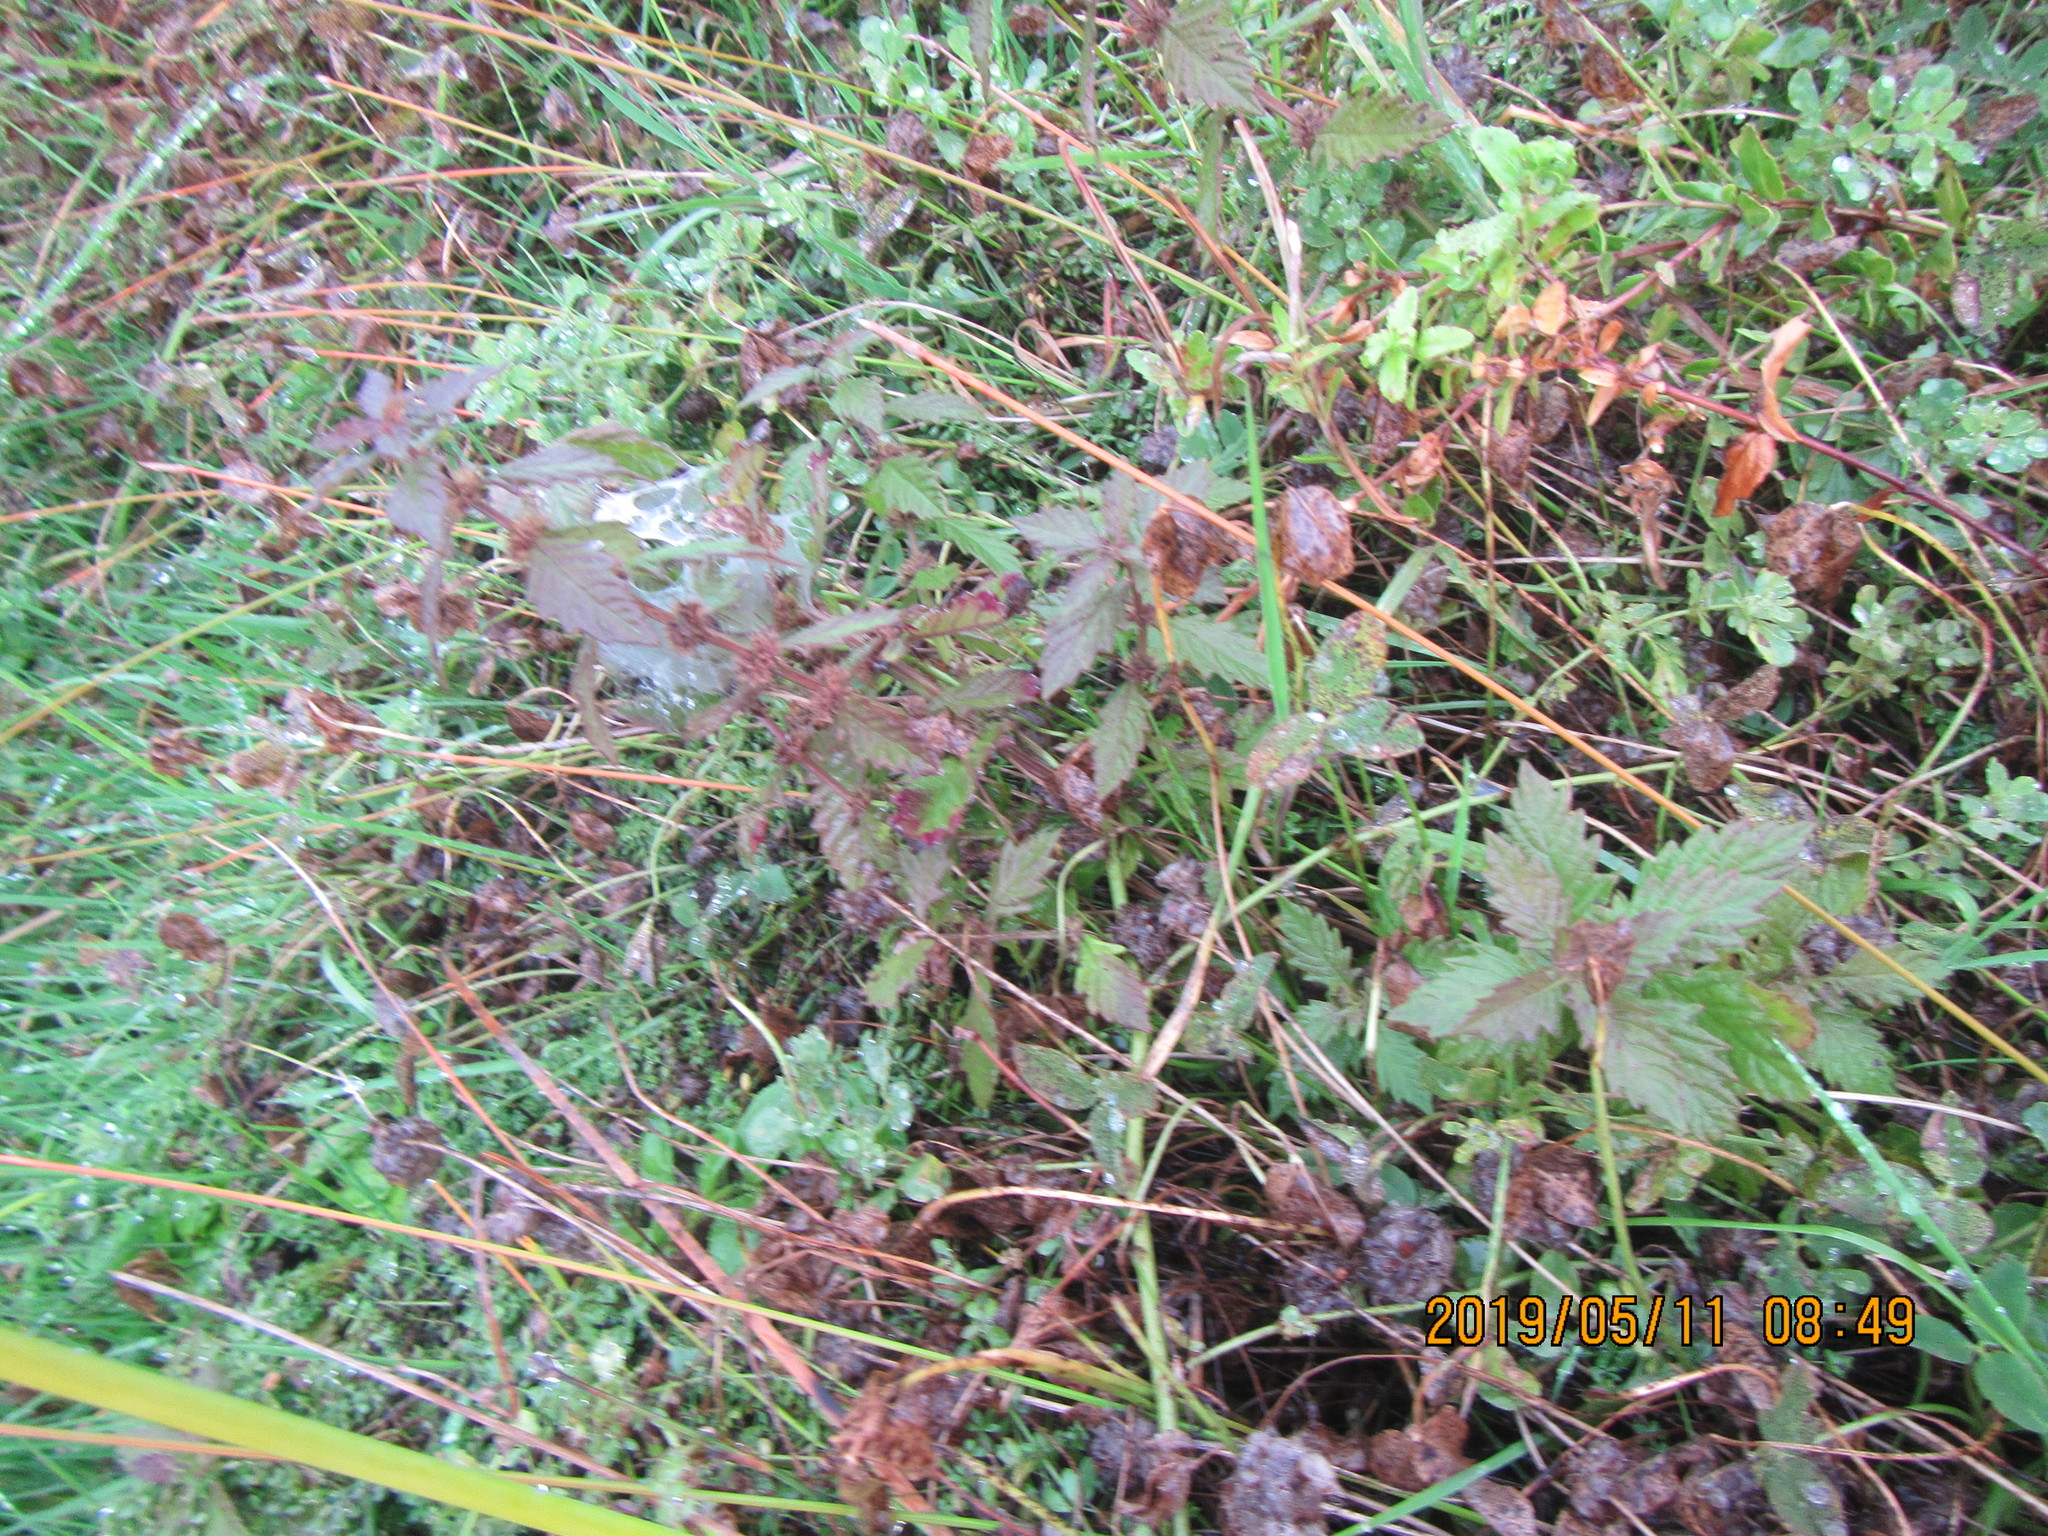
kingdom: Plantae
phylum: Tracheophyta
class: Magnoliopsida
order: Lamiales
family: Lamiaceae
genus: Lycopus
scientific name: Lycopus europaeus
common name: European bugleweed
